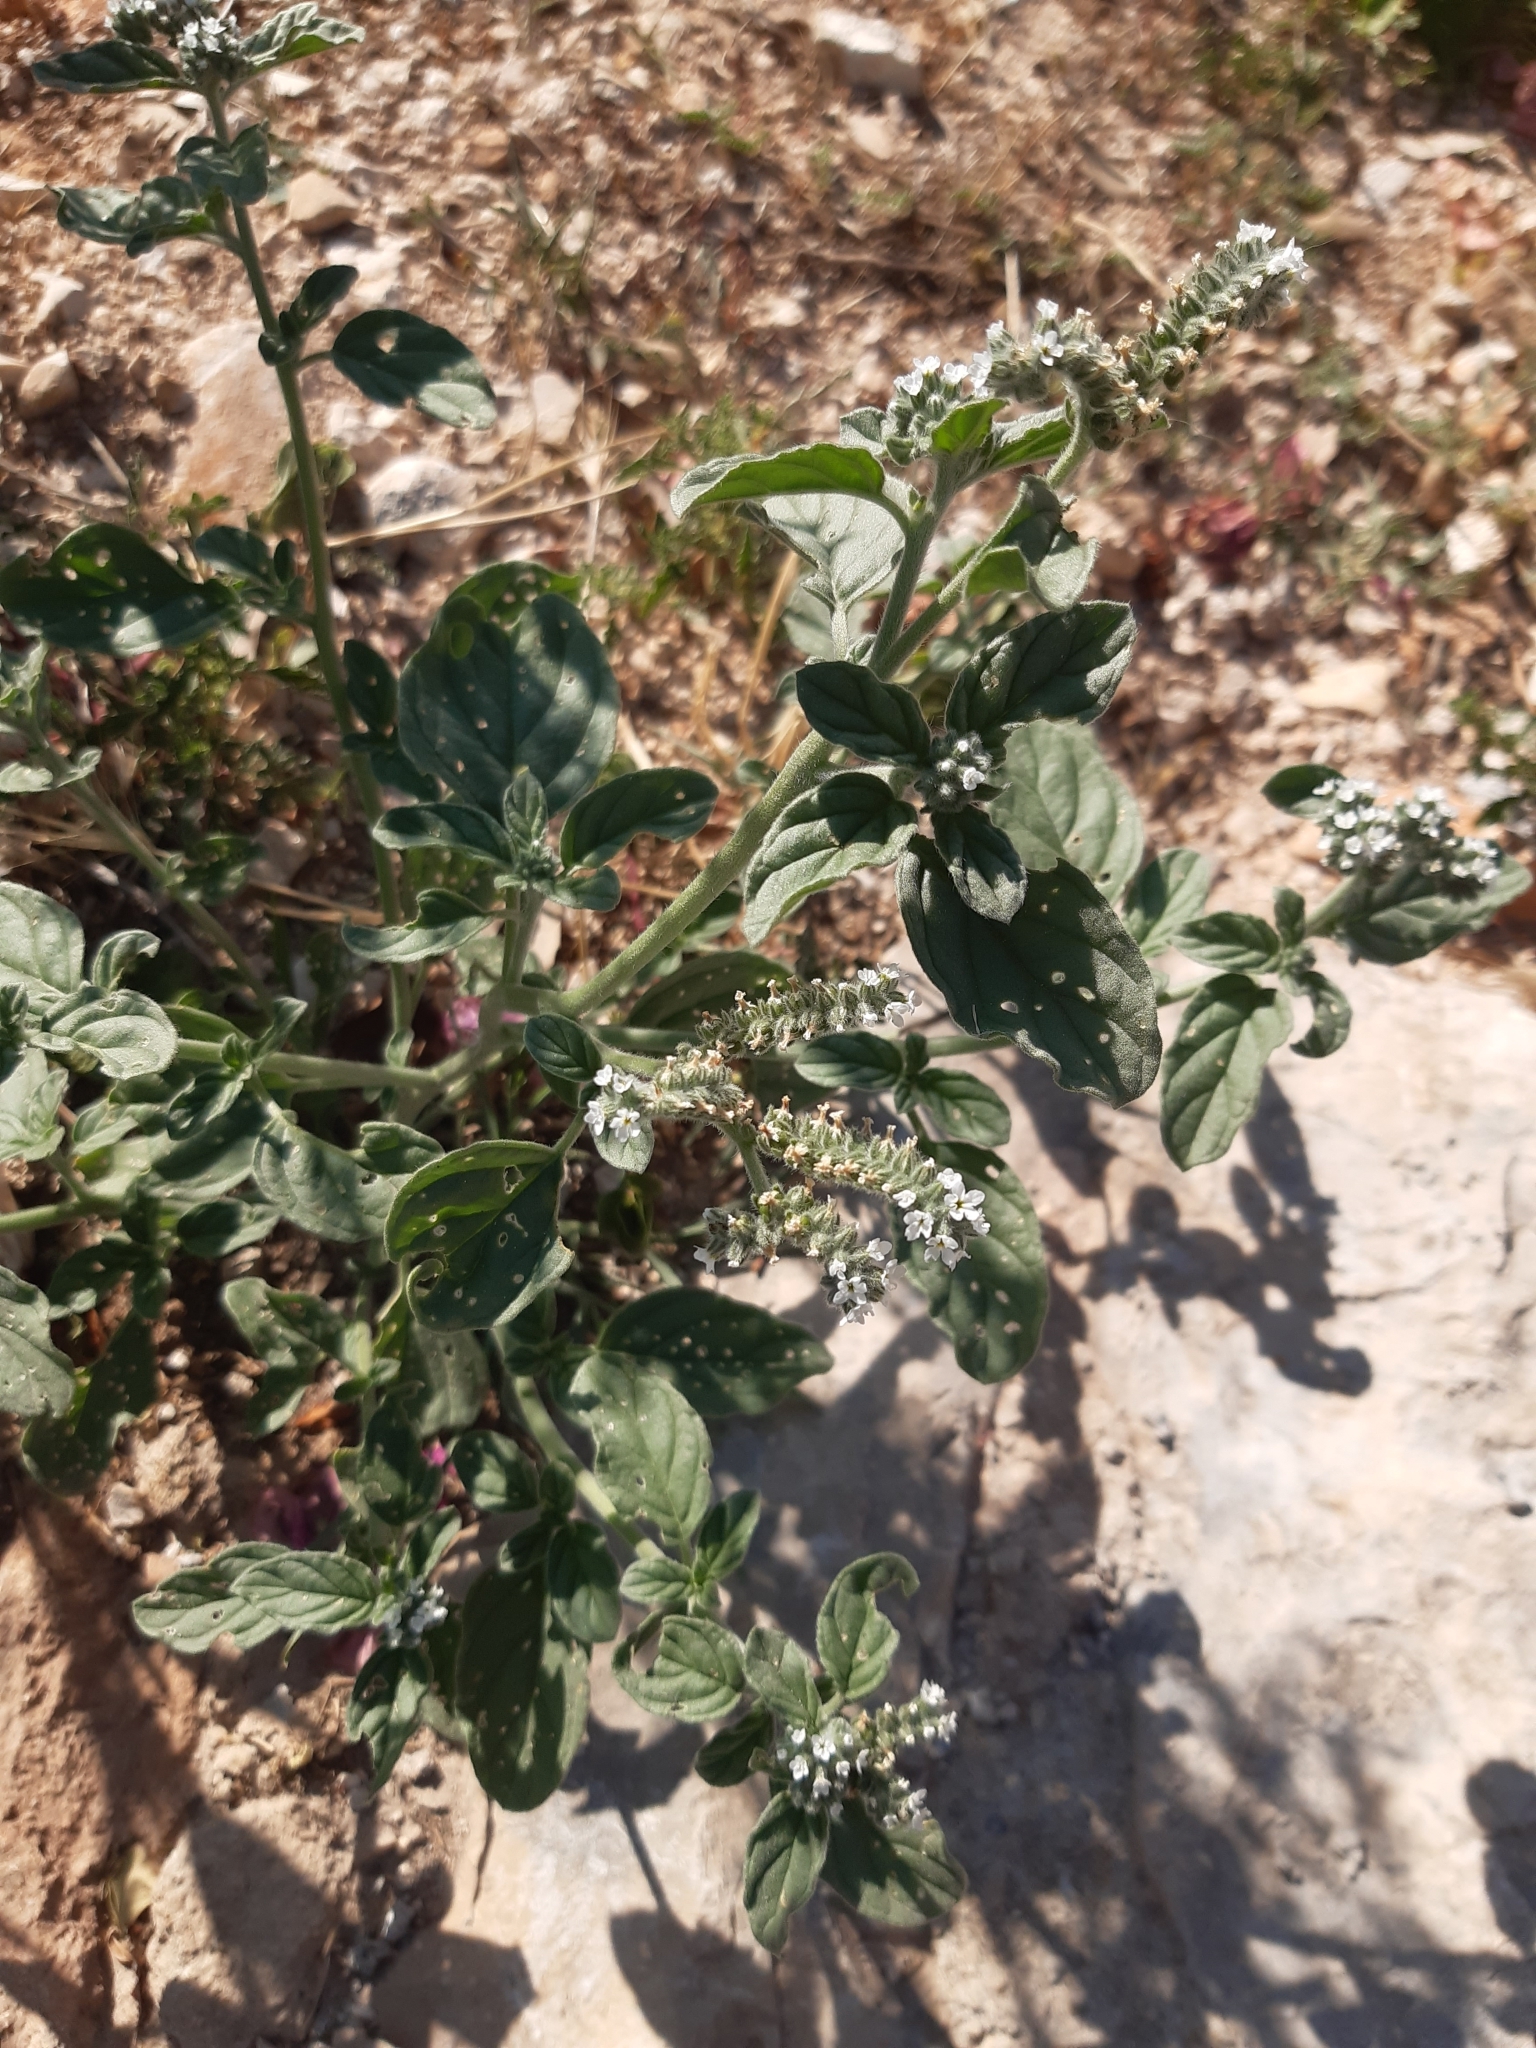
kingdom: Plantae
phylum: Tracheophyta
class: Magnoliopsida
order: Boraginales
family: Heliotropiaceae
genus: Heliotropium
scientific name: Heliotropium europaeum
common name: European heliotrope
